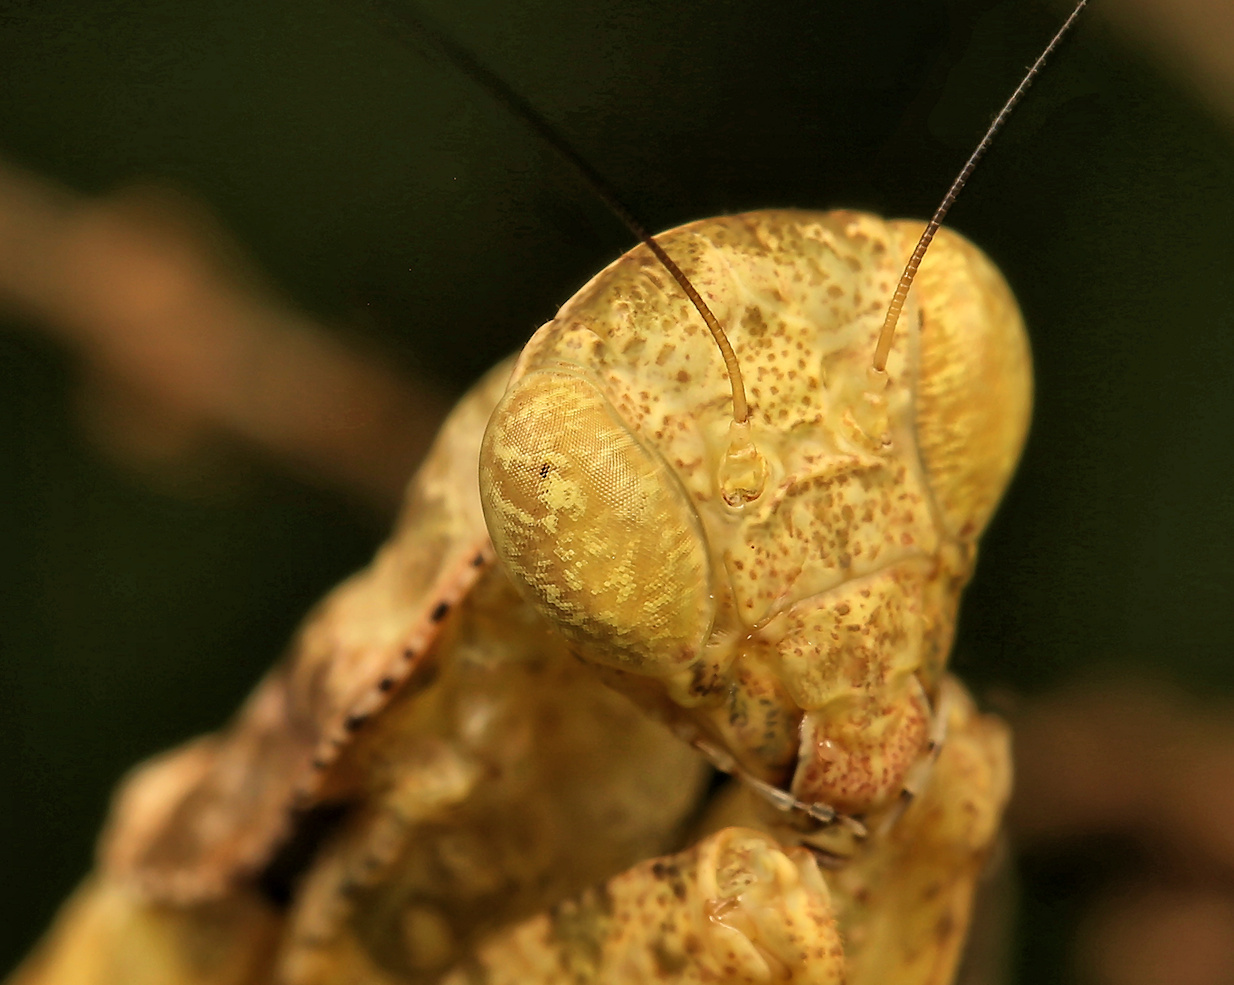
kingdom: Animalia
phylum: Arthropoda
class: Insecta
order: Mantodea
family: Chroicopteridae
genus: Dystacta
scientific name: Dystacta alticeps
